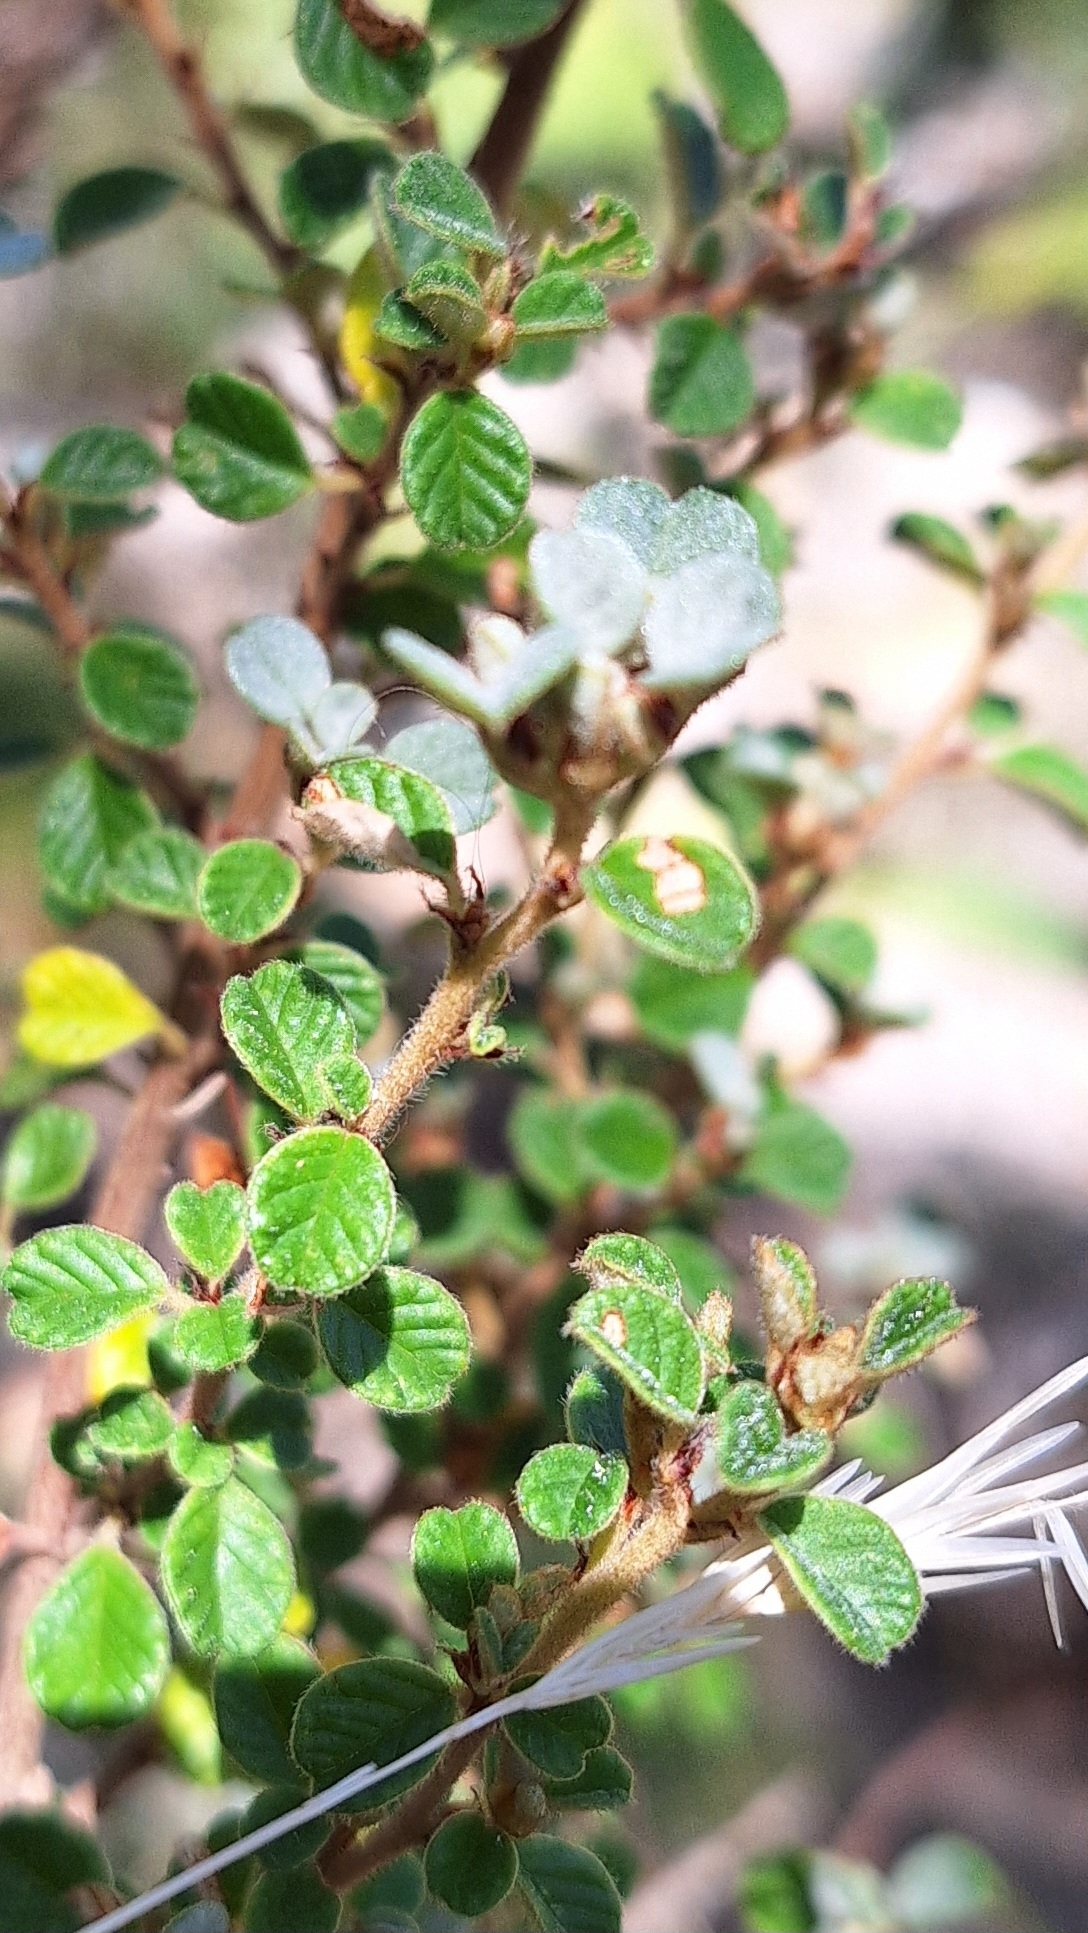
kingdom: Plantae
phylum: Tracheophyta
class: Magnoliopsida
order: Rosales
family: Rhamnaceae
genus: Spyridium
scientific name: Spyridium parvifolium
